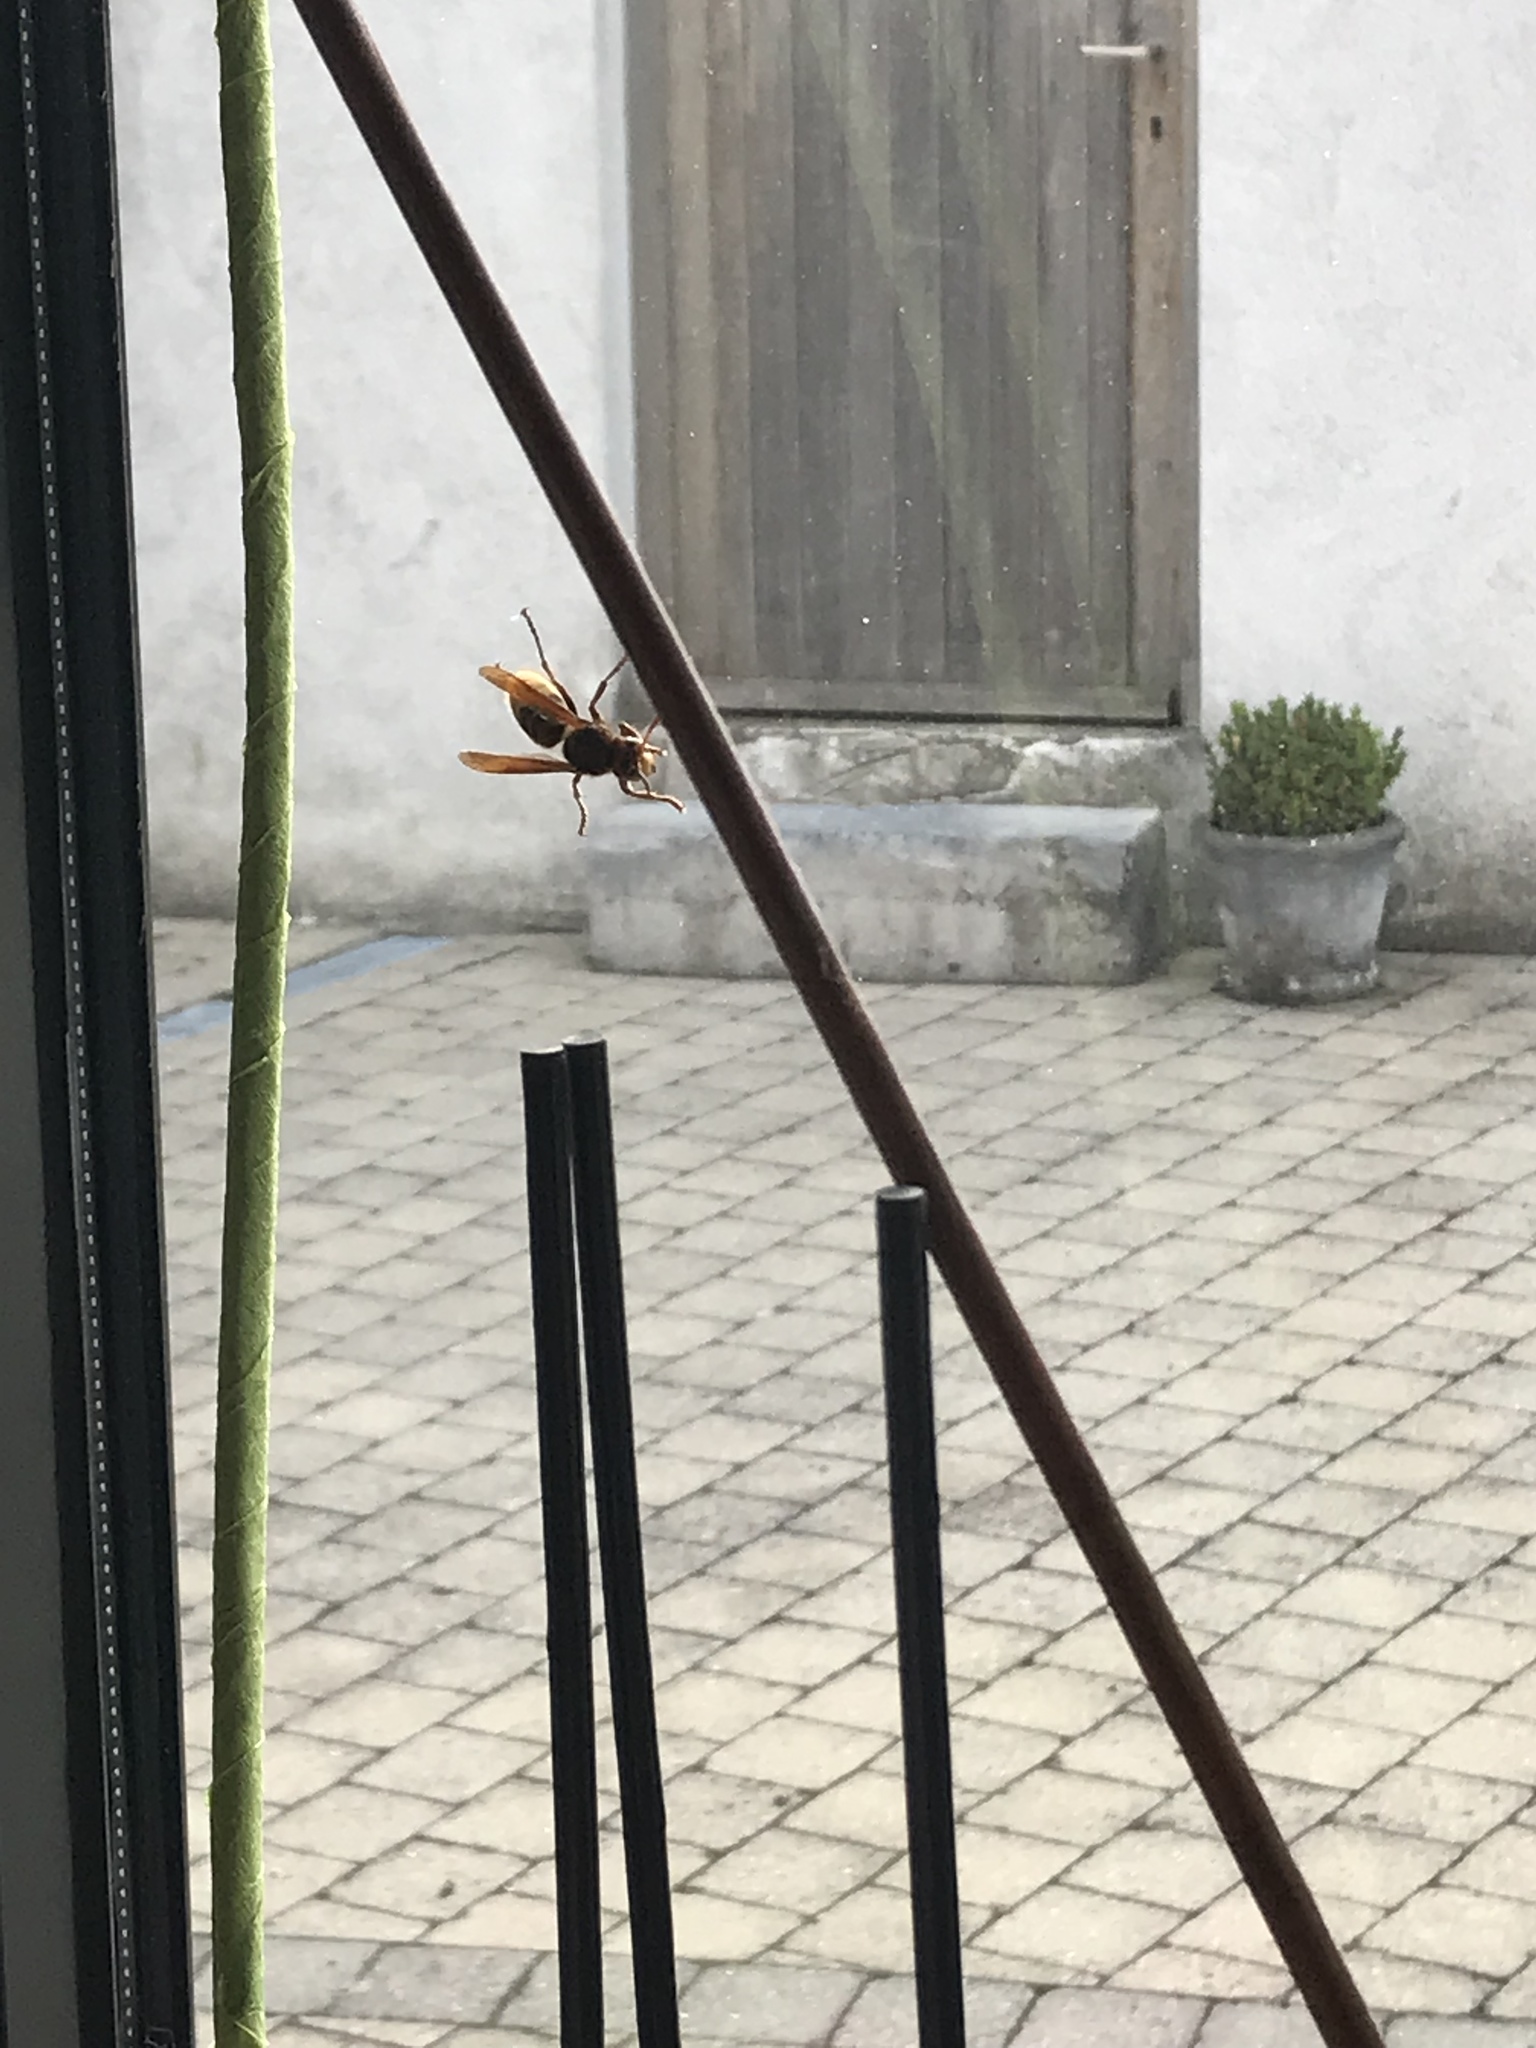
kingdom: Animalia
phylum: Arthropoda
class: Insecta
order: Hymenoptera
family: Vespidae
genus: Vespa
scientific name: Vespa crabro
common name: Hornet
